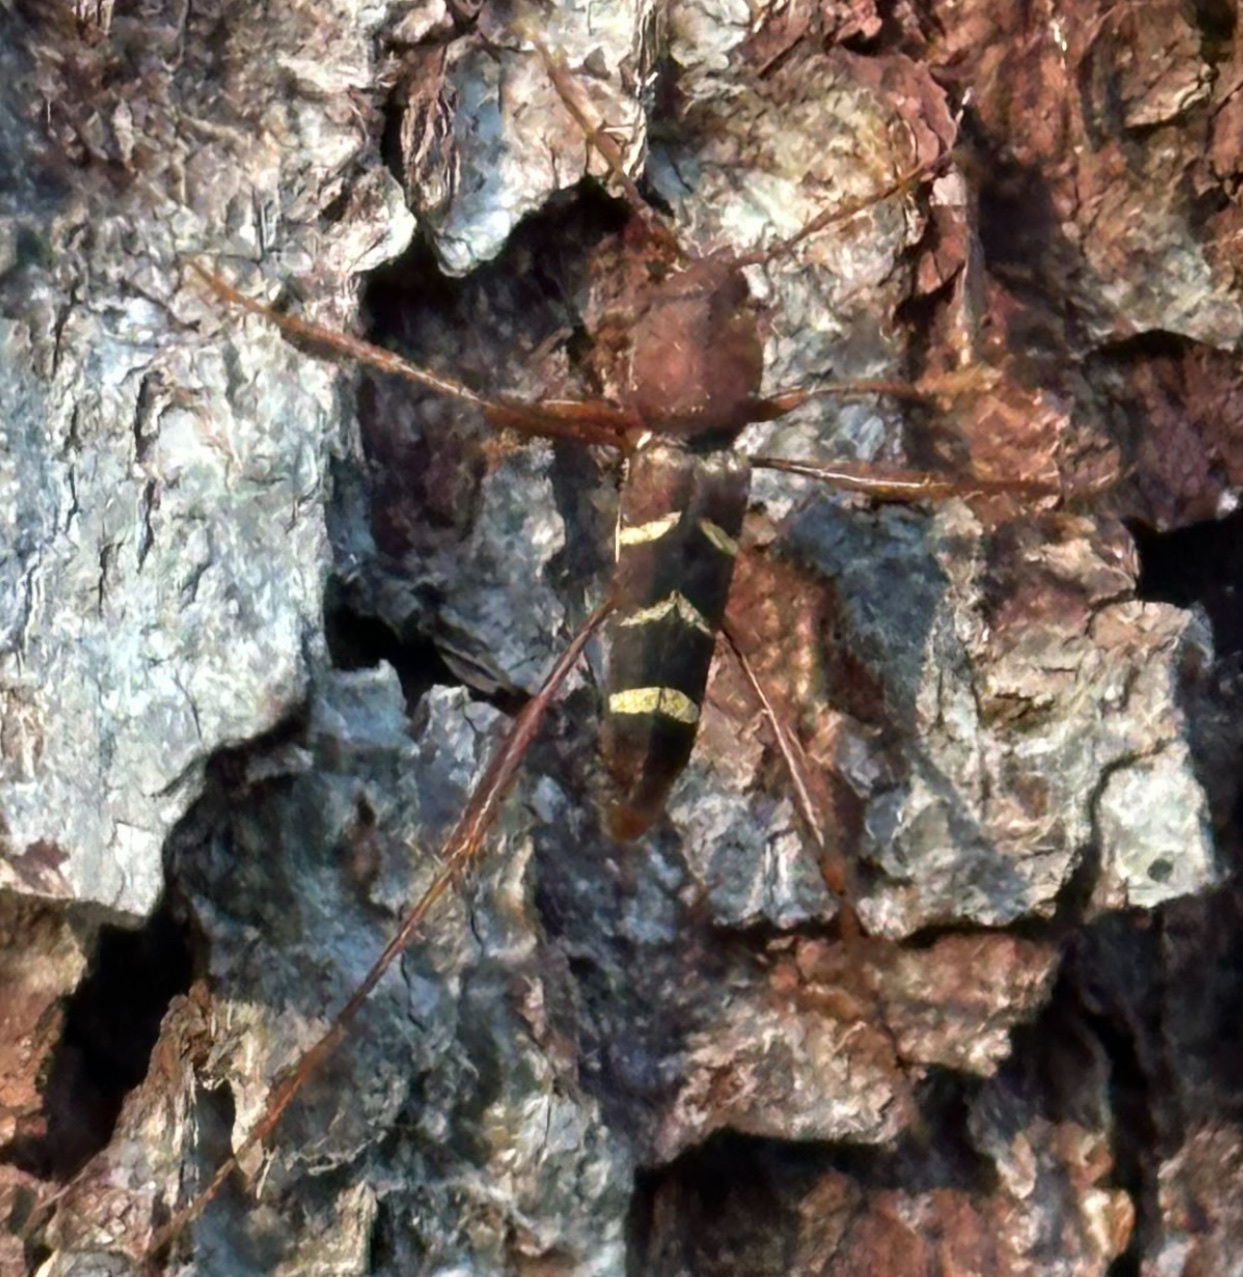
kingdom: Animalia
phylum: Arthropoda
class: Insecta
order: Coleoptera
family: Cerambycidae
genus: Neoclytus
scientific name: Neoclytus acuminatus
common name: Read-headed ash borer
